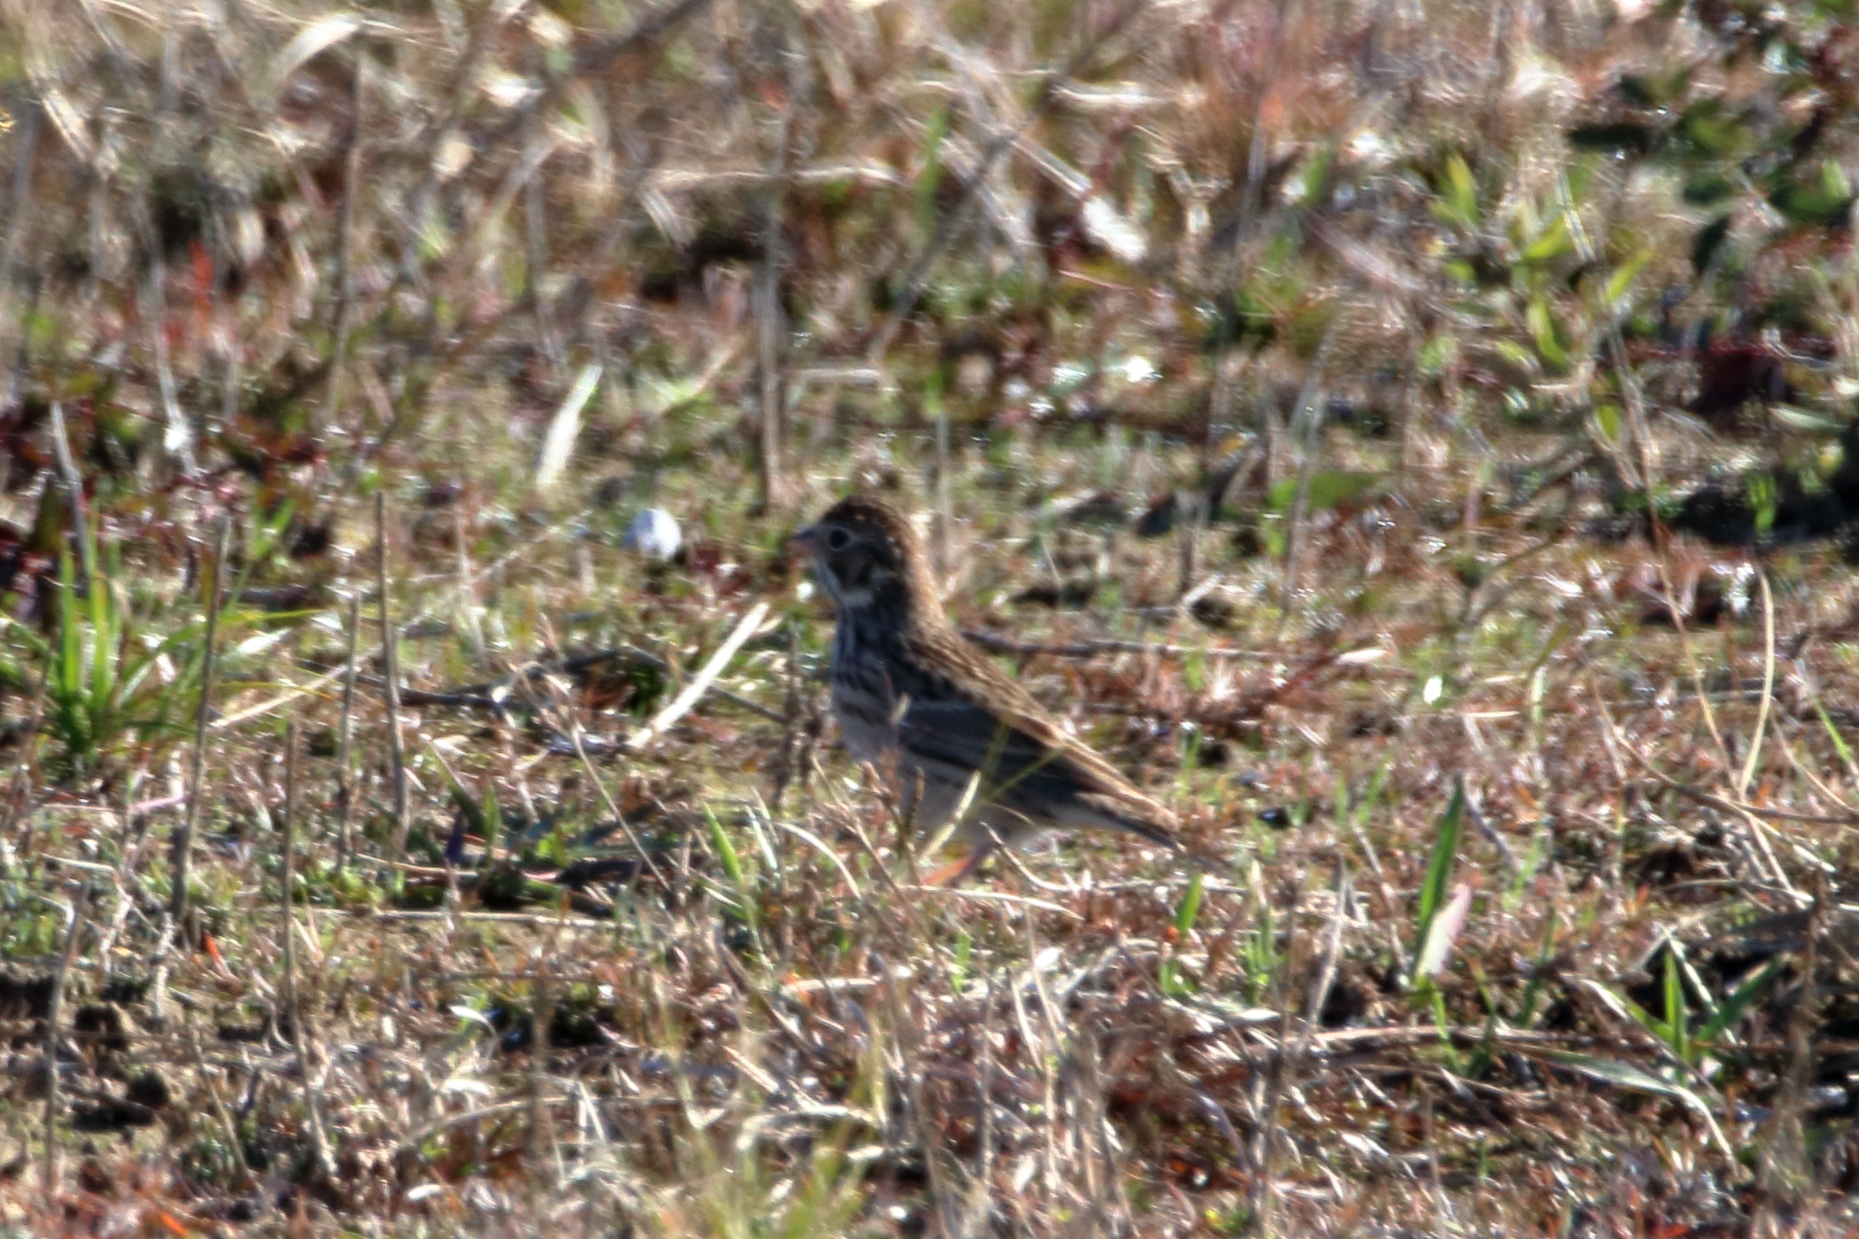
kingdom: Animalia
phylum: Chordata
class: Aves
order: Passeriformes
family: Passerellidae
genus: Pooecetes
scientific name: Pooecetes gramineus
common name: Vesper sparrow
